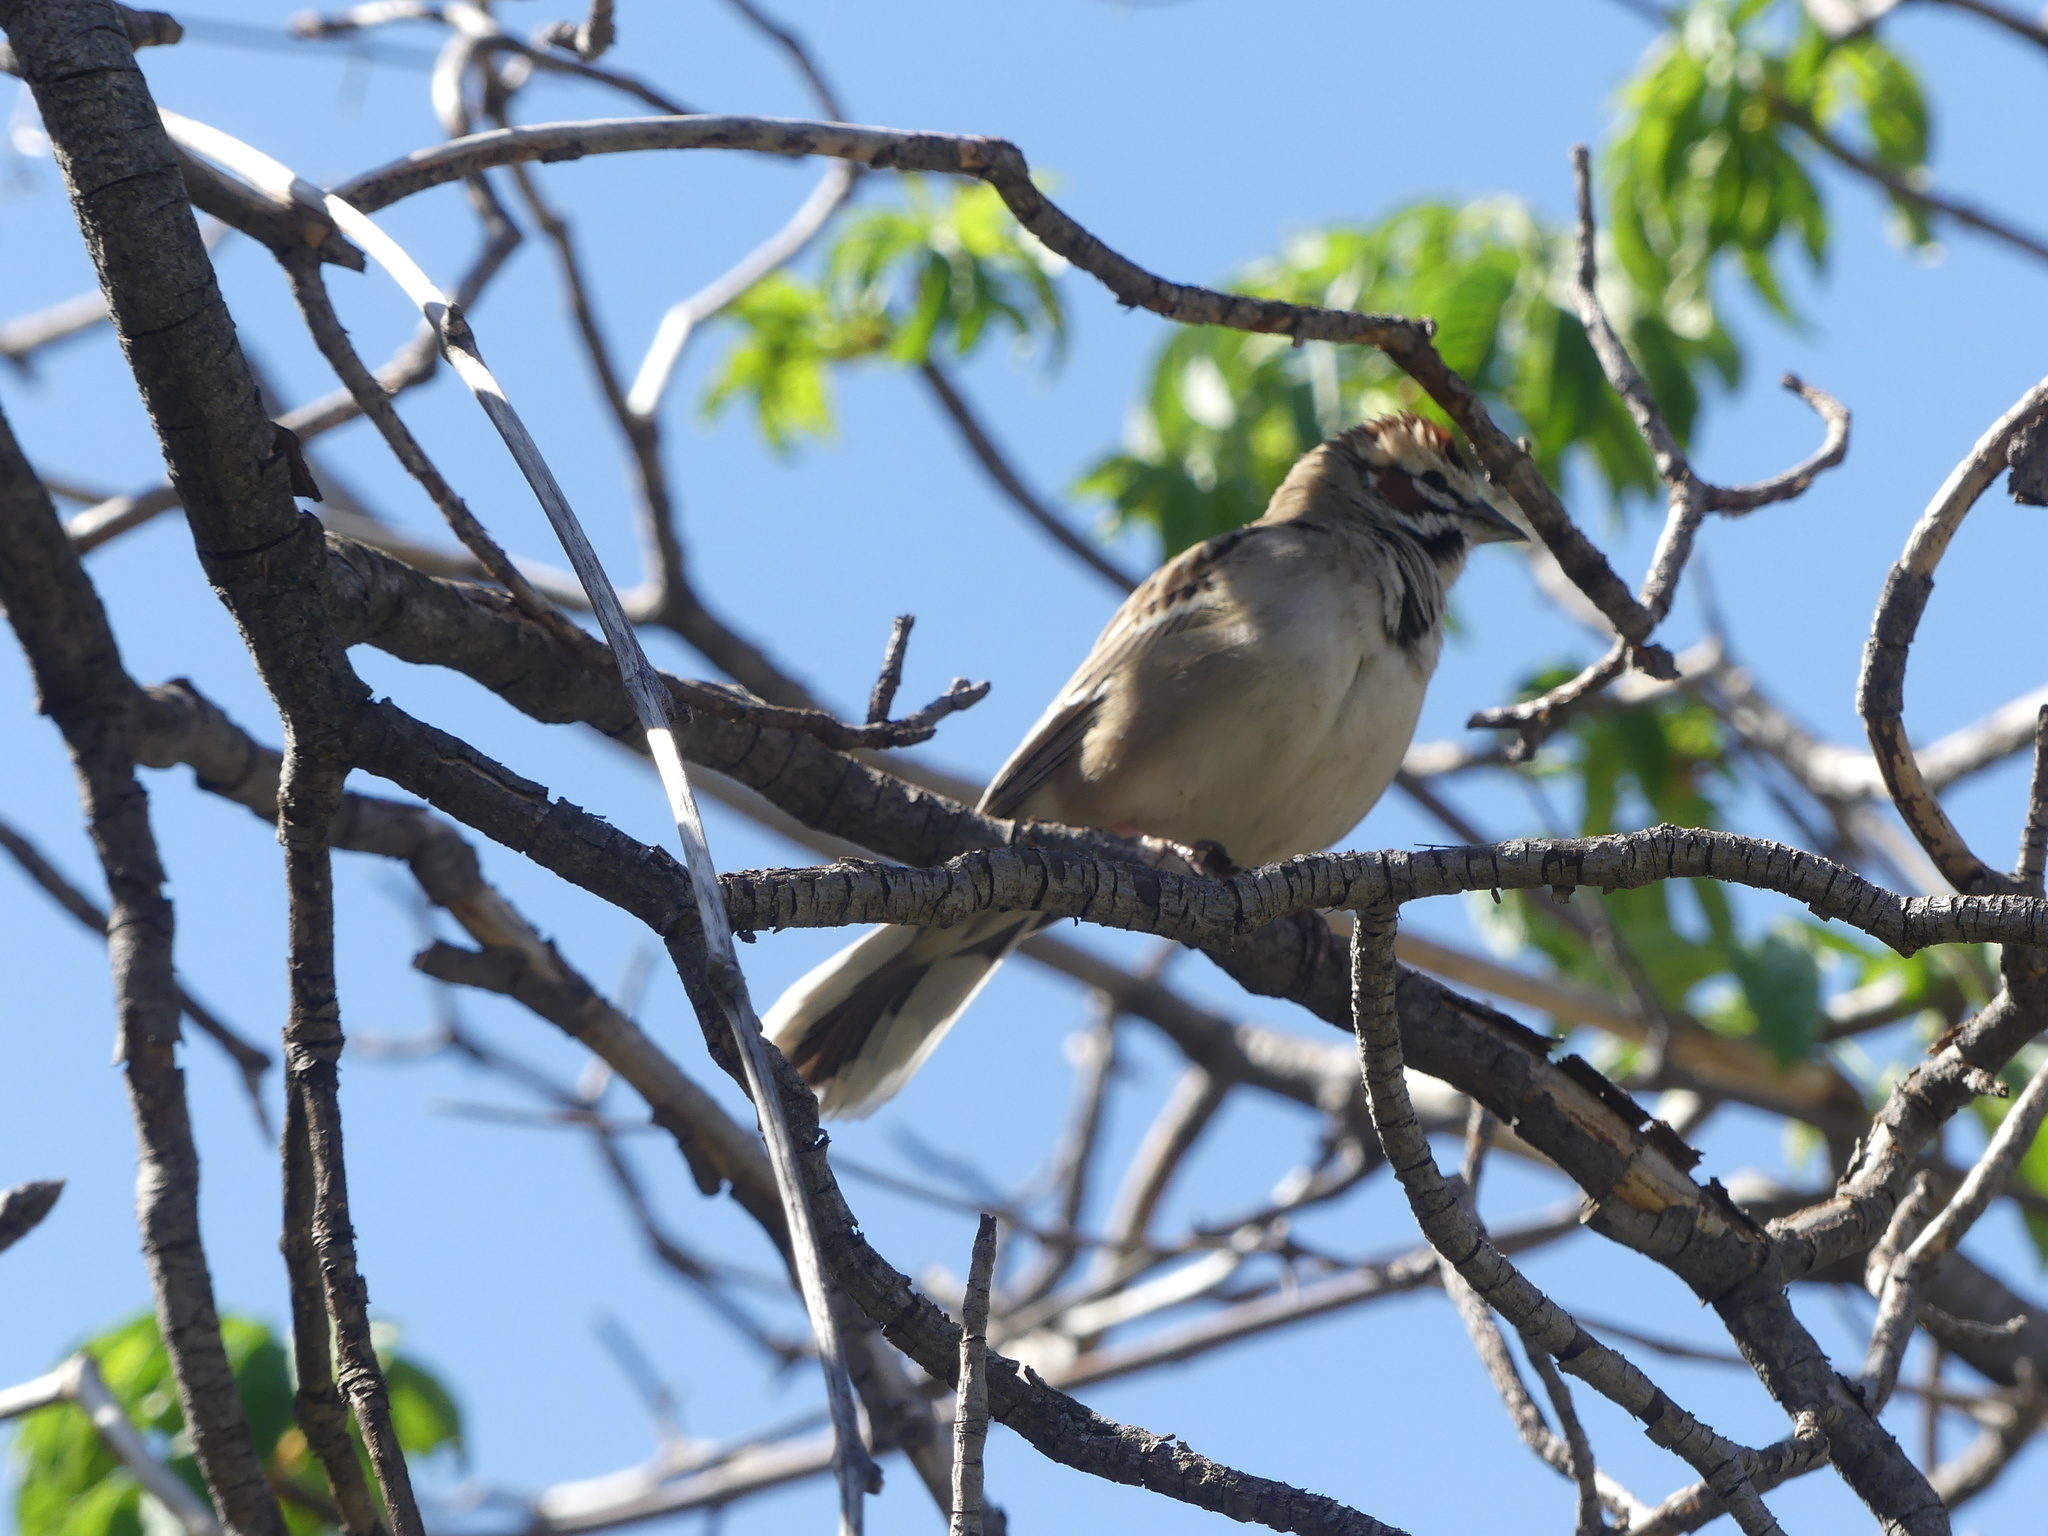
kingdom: Animalia
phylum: Chordata
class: Aves
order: Passeriformes
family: Passerellidae
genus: Chondestes
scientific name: Chondestes grammacus
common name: Lark sparrow
